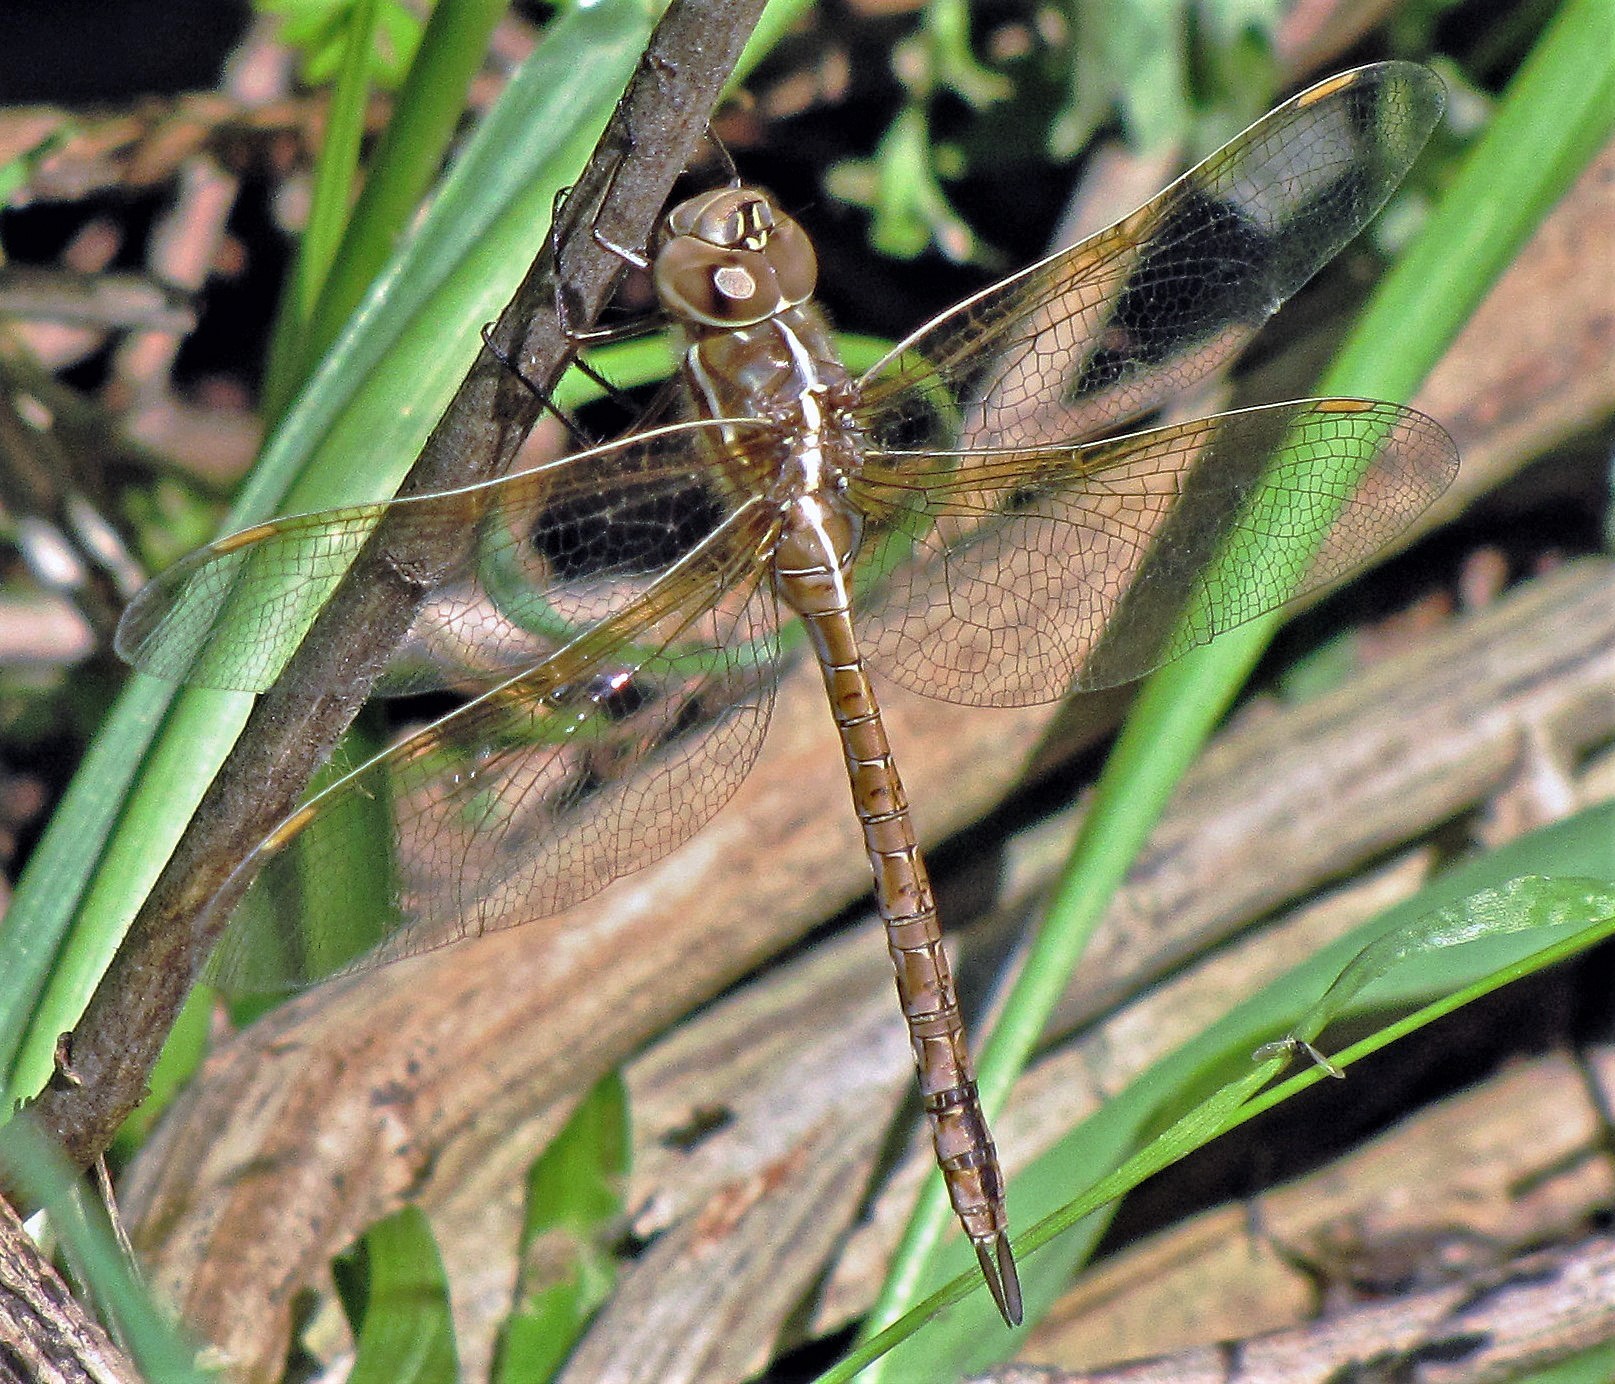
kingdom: Animalia
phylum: Arthropoda
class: Insecta
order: Odonata
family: Aeshnidae
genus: Rhionaeschna
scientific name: Rhionaeschna bonariensis
